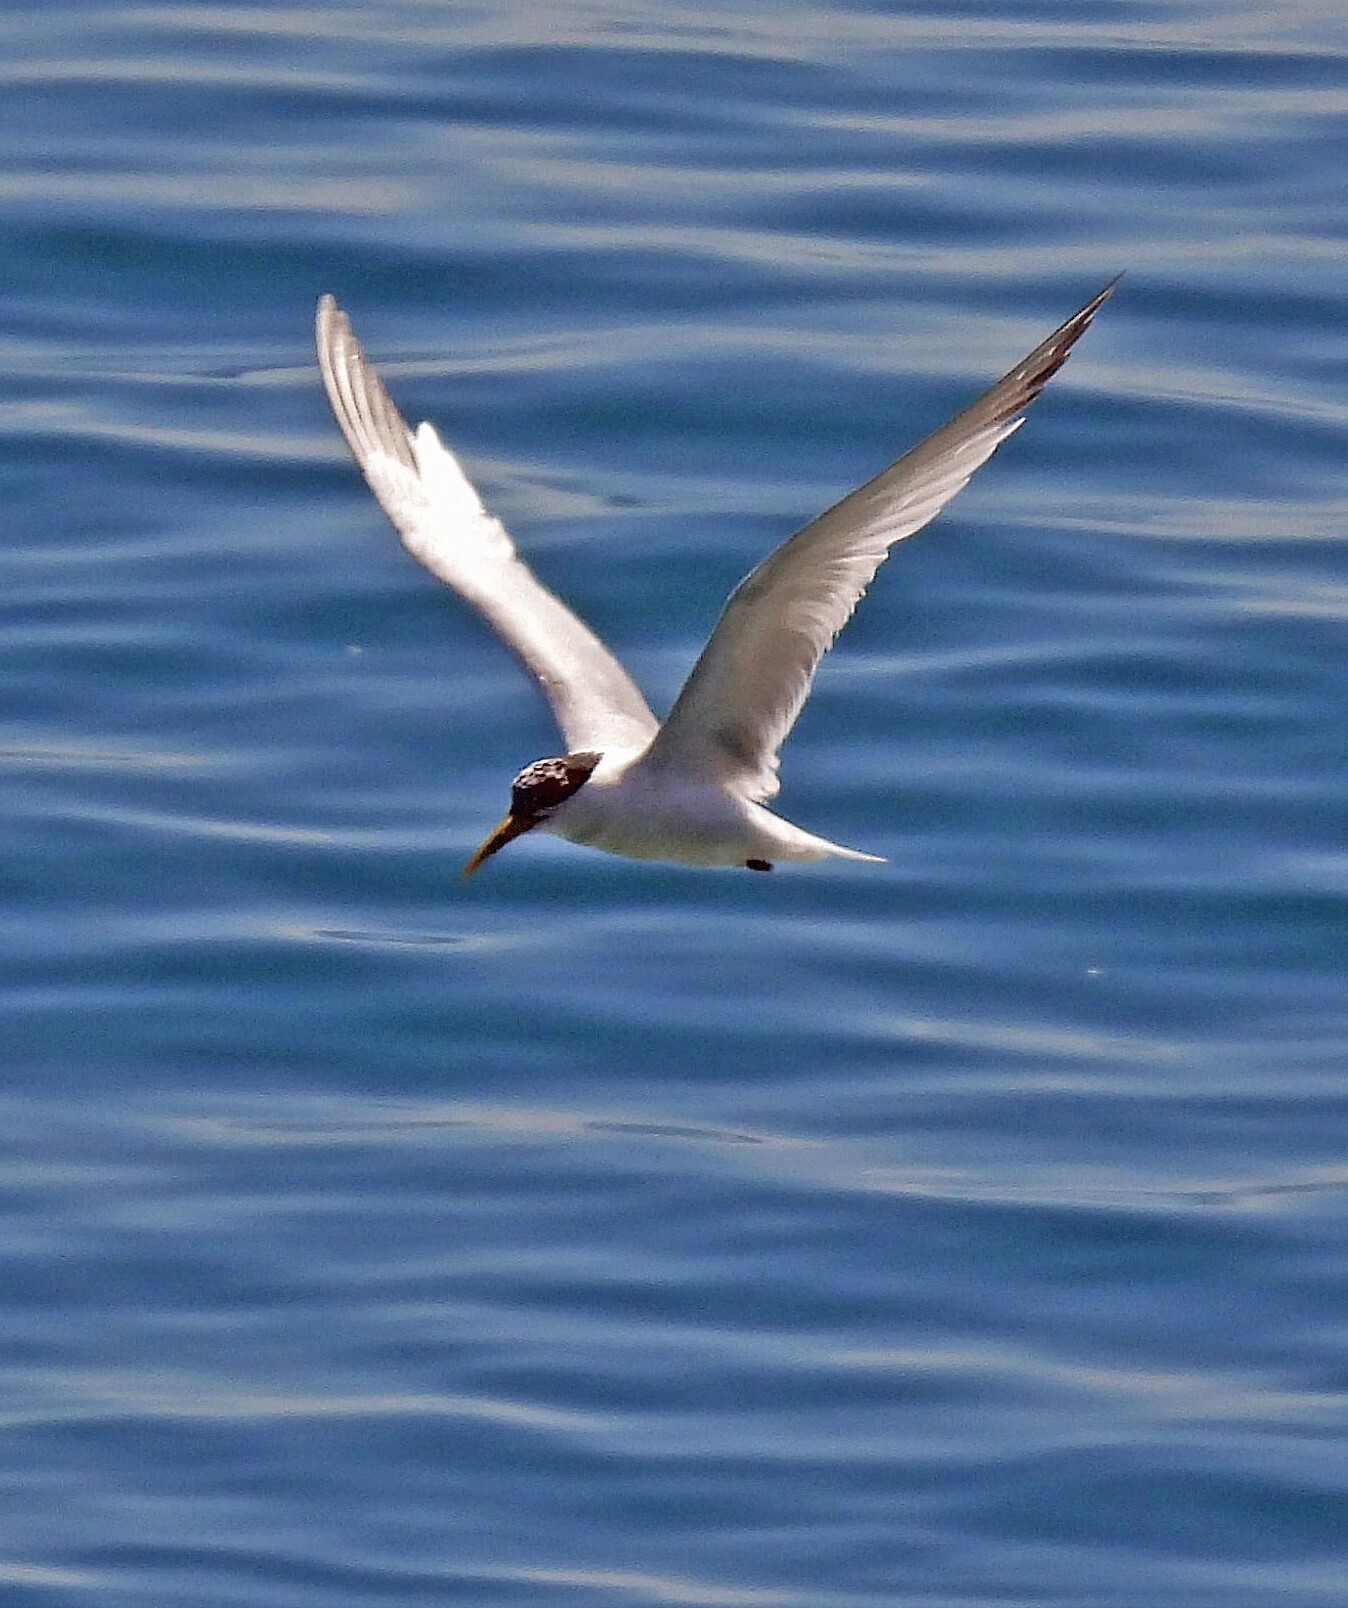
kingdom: Animalia
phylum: Chordata
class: Aves
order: Charadriiformes
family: Laridae
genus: Thalasseus
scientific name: Thalasseus acuflavidus
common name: Cabot's tern
